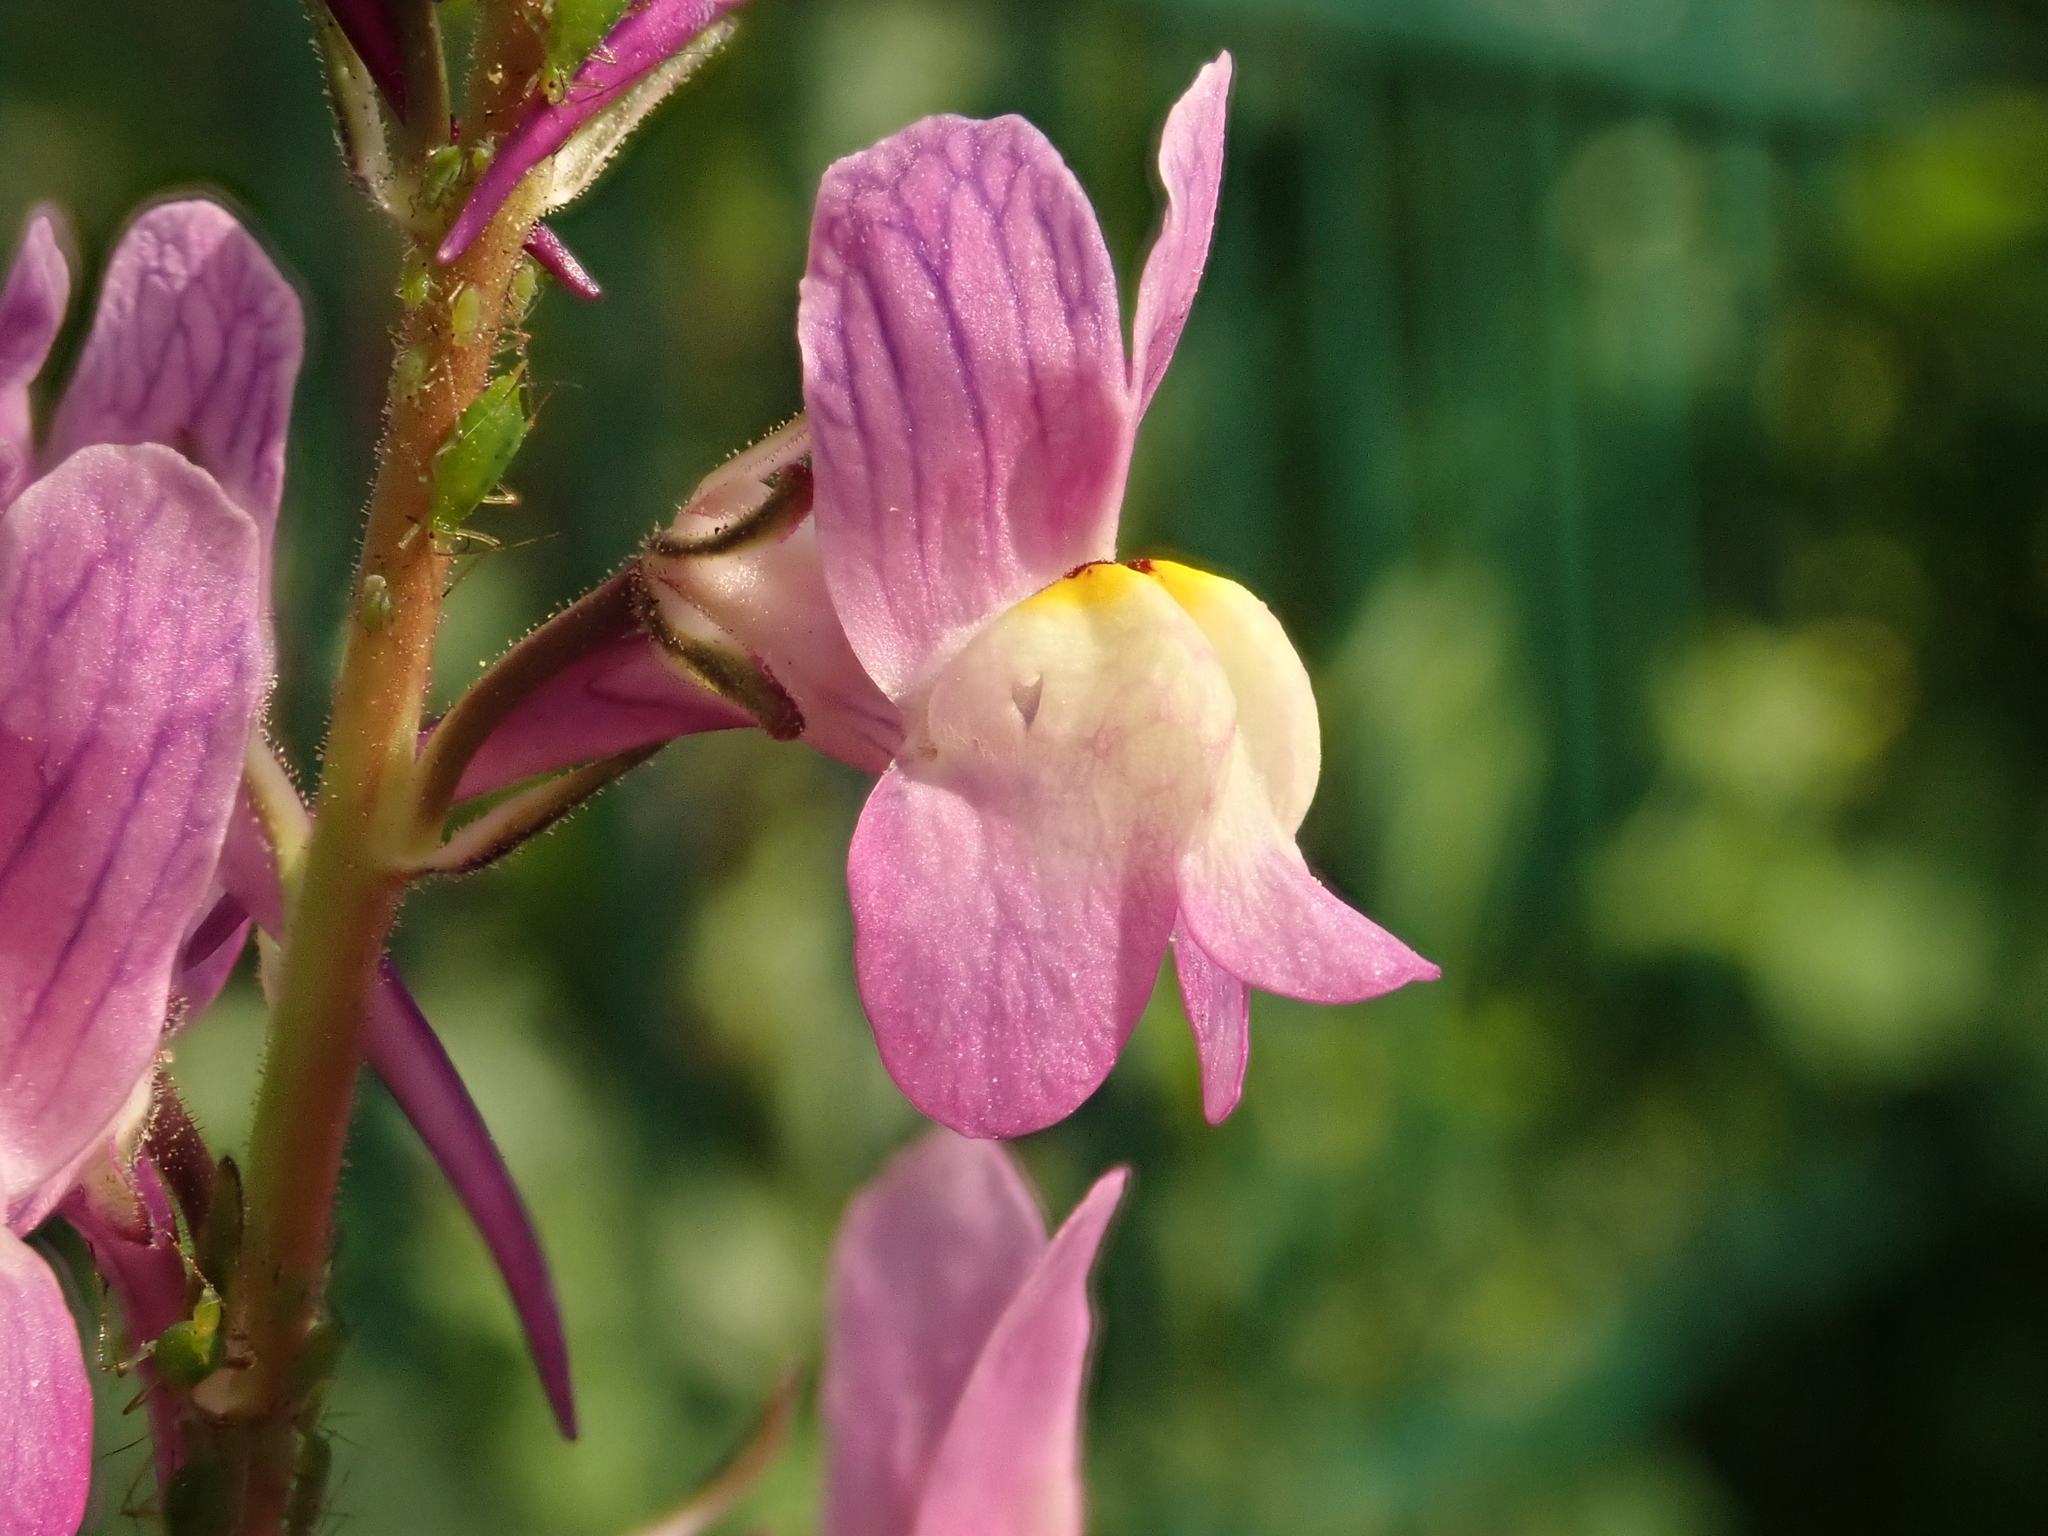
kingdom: Plantae
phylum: Tracheophyta
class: Magnoliopsida
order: Lamiales
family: Plantaginaceae
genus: Linaria
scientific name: Linaria maroccana
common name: Moroccan toadflax
